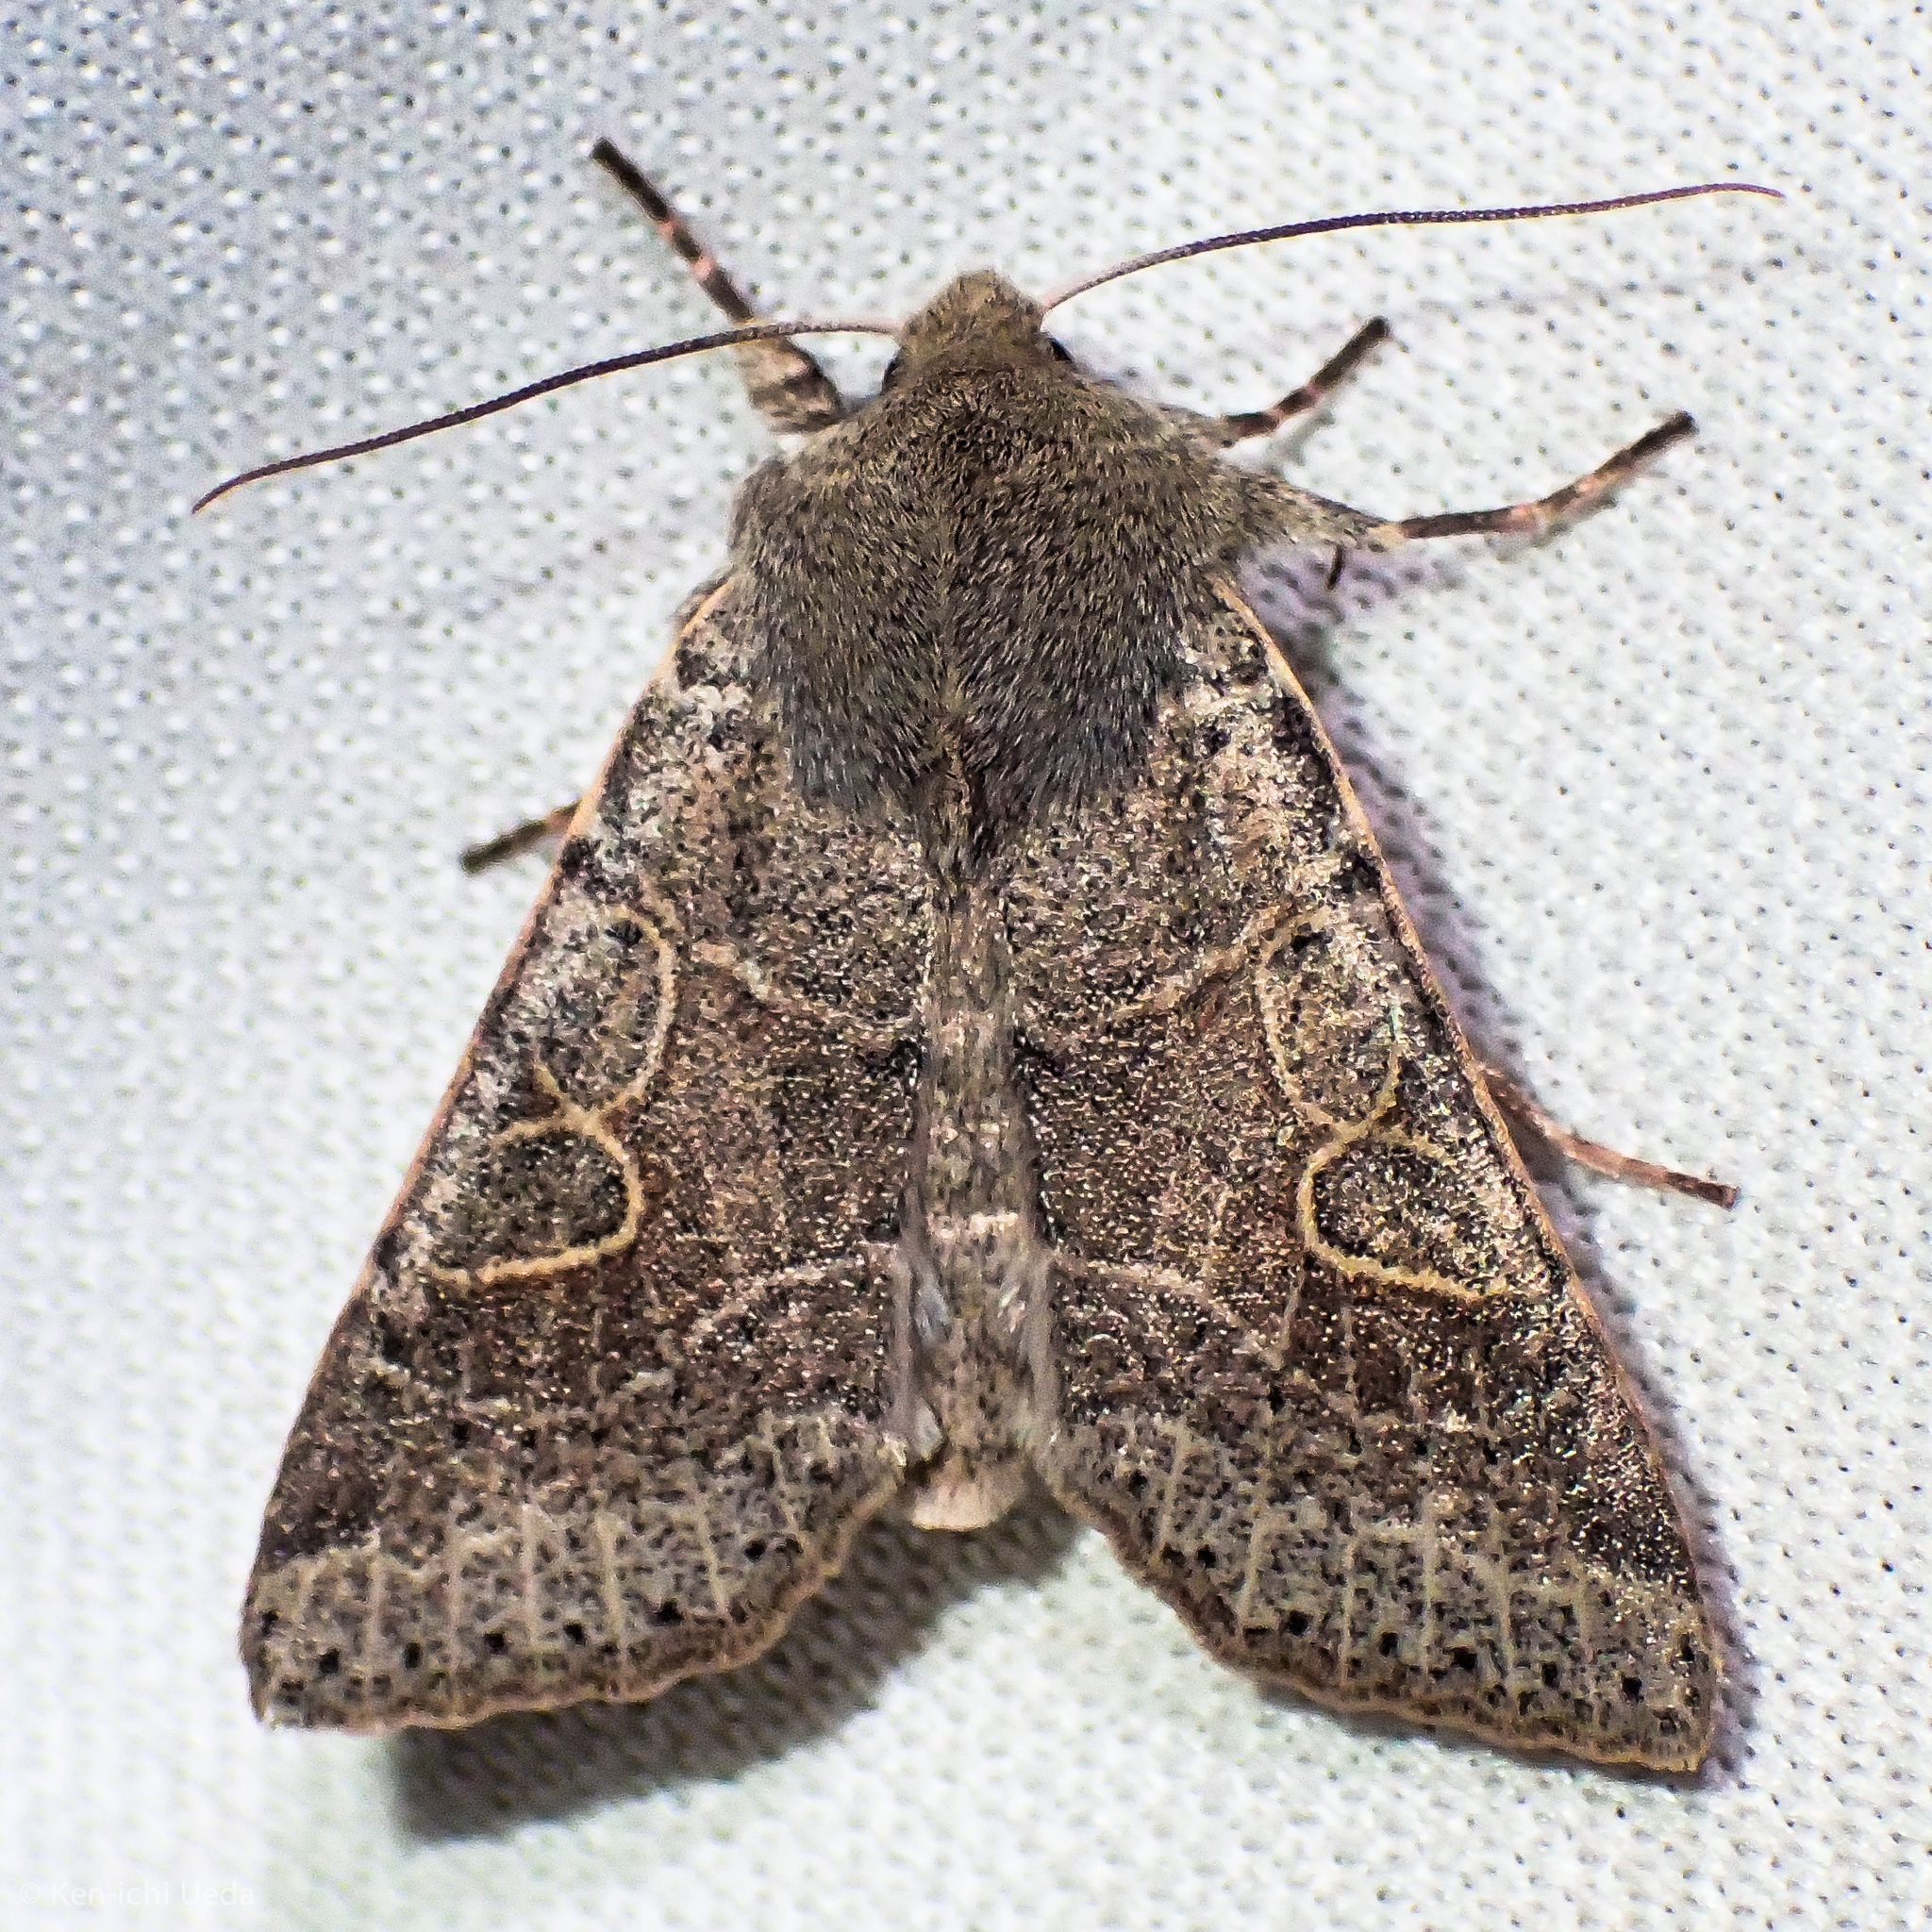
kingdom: Animalia
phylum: Arthropoda
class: Insecta
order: Lepidoptera
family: Noctuidae
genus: Orthosia
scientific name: Orthosia behrensiana
